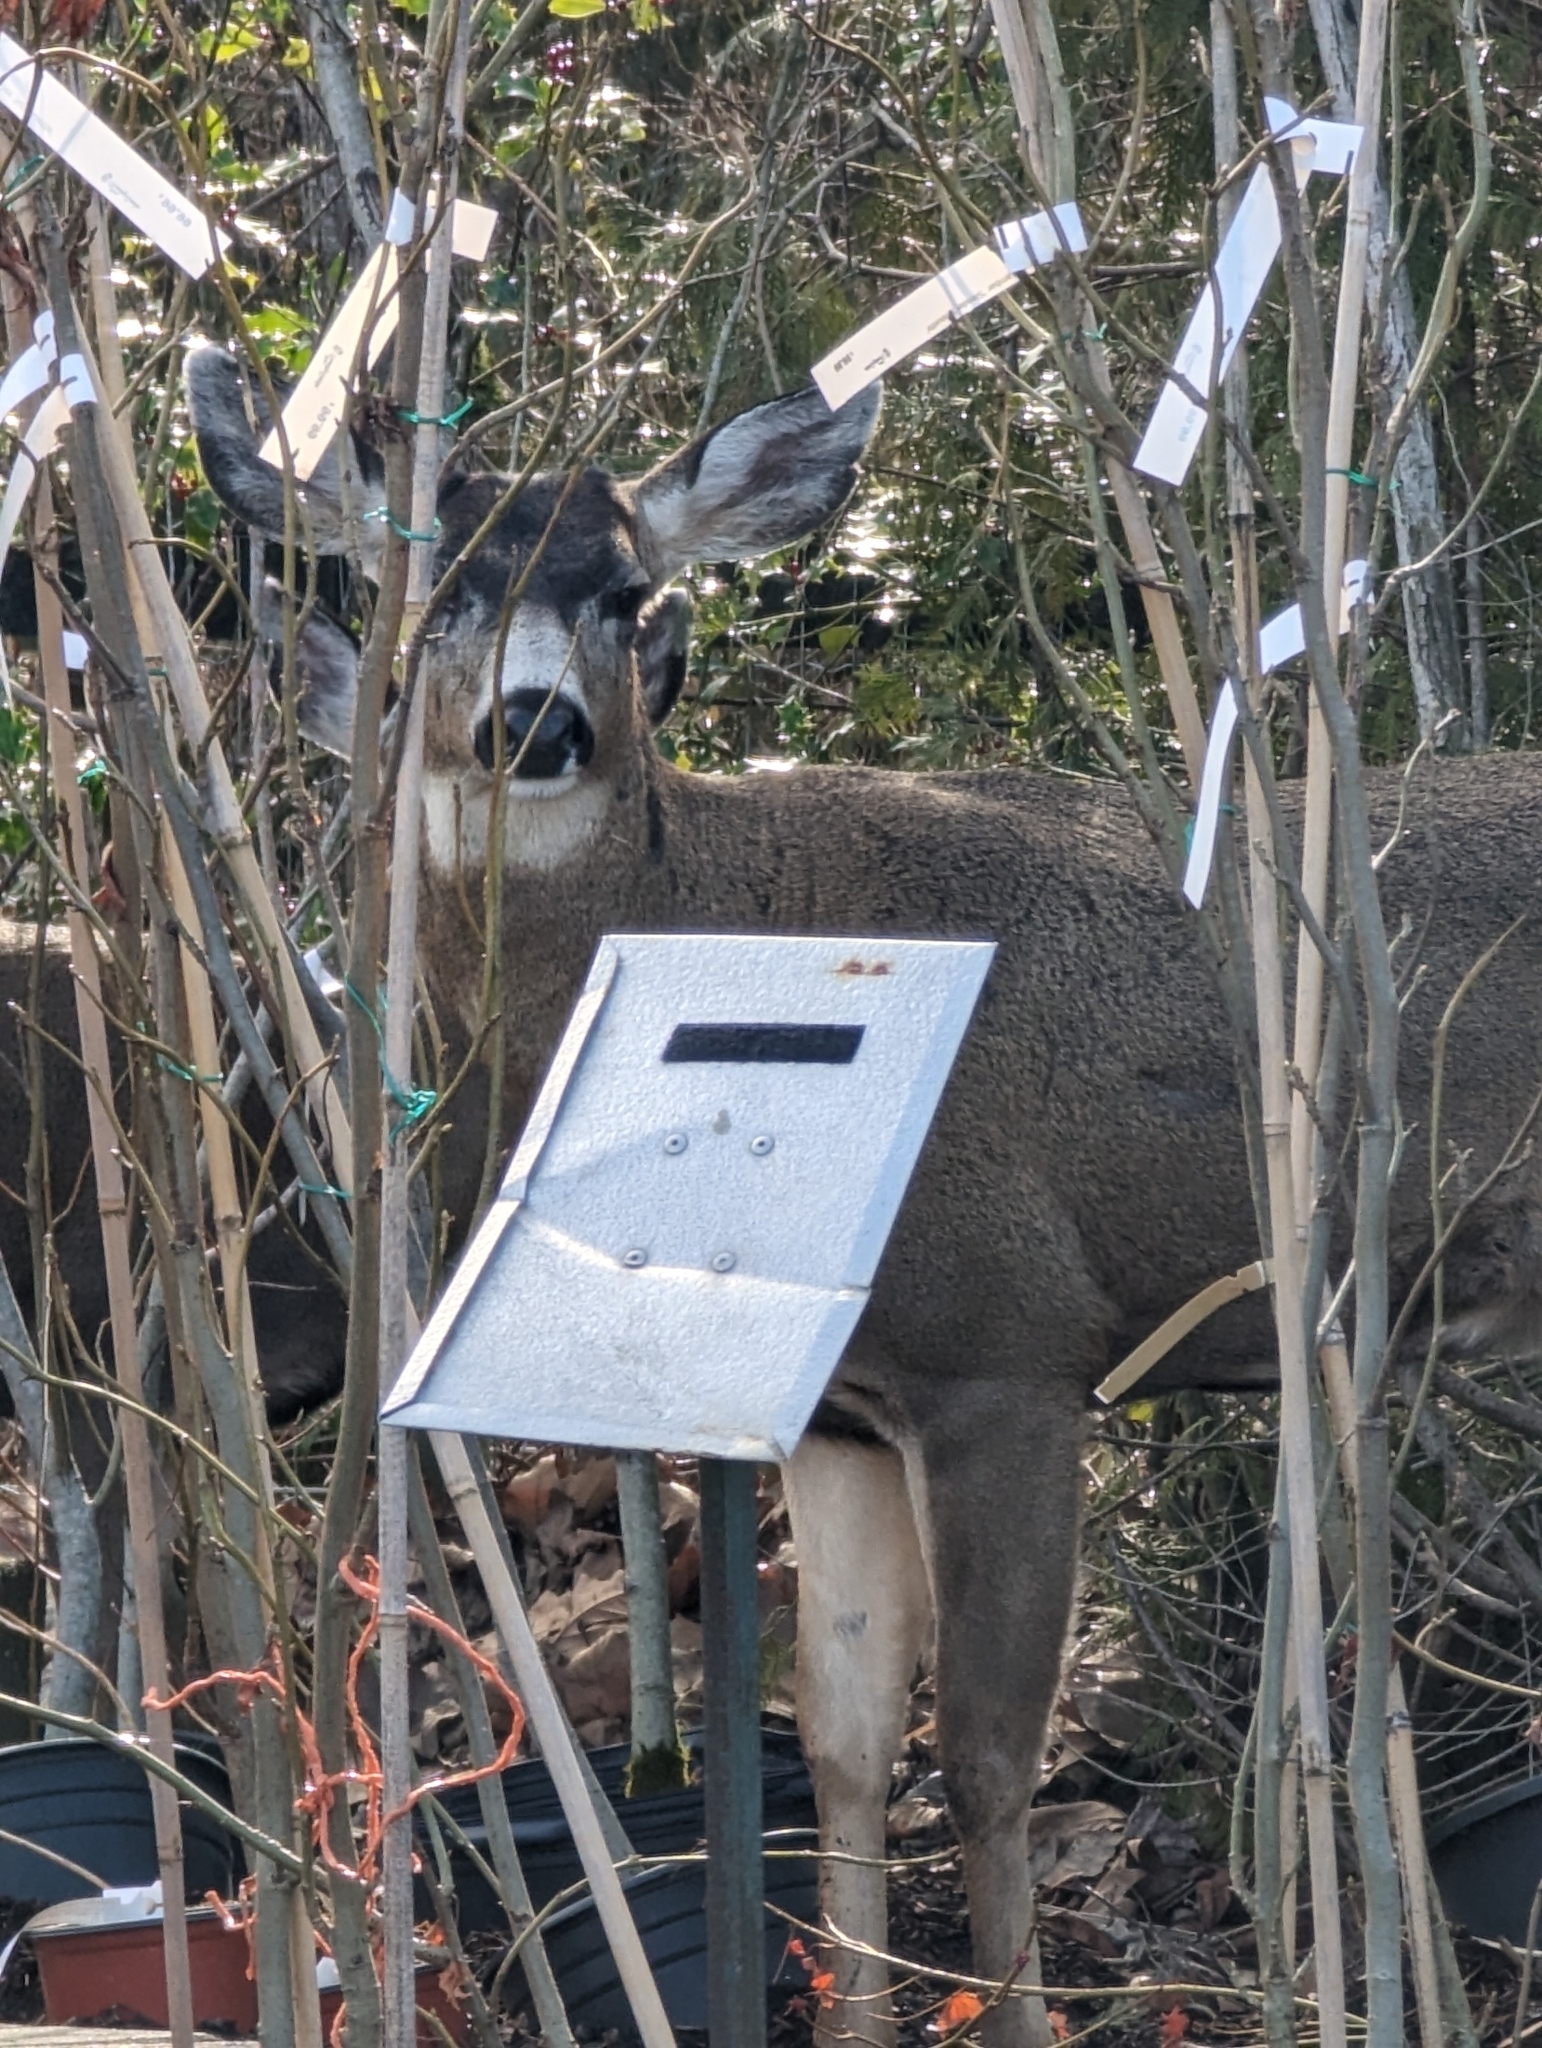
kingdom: Animalia
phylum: Chordata
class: Mammalia
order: Artiodactyla
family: Cervidae
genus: Odocoileus
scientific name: Odocoileus hemionus
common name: Mule deer
